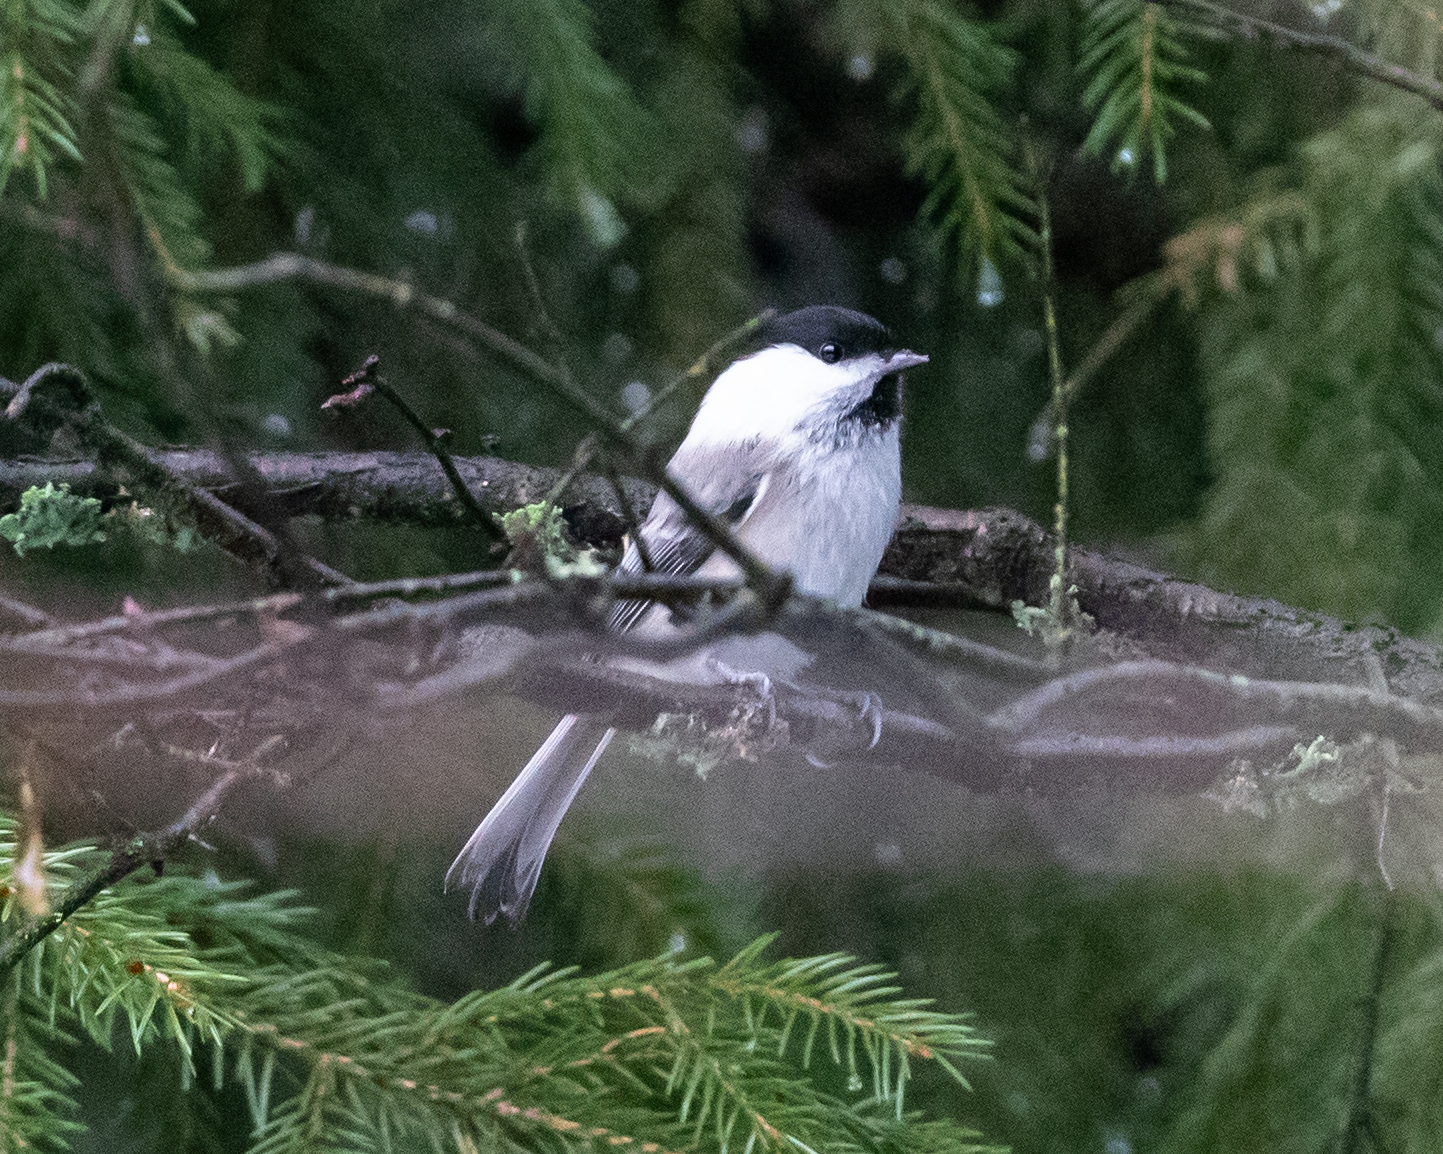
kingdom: Animalia
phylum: Chordata
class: Aves
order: Passeriformes
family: Paridae
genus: Poecile
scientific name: Poecile montanus
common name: Willow tit
